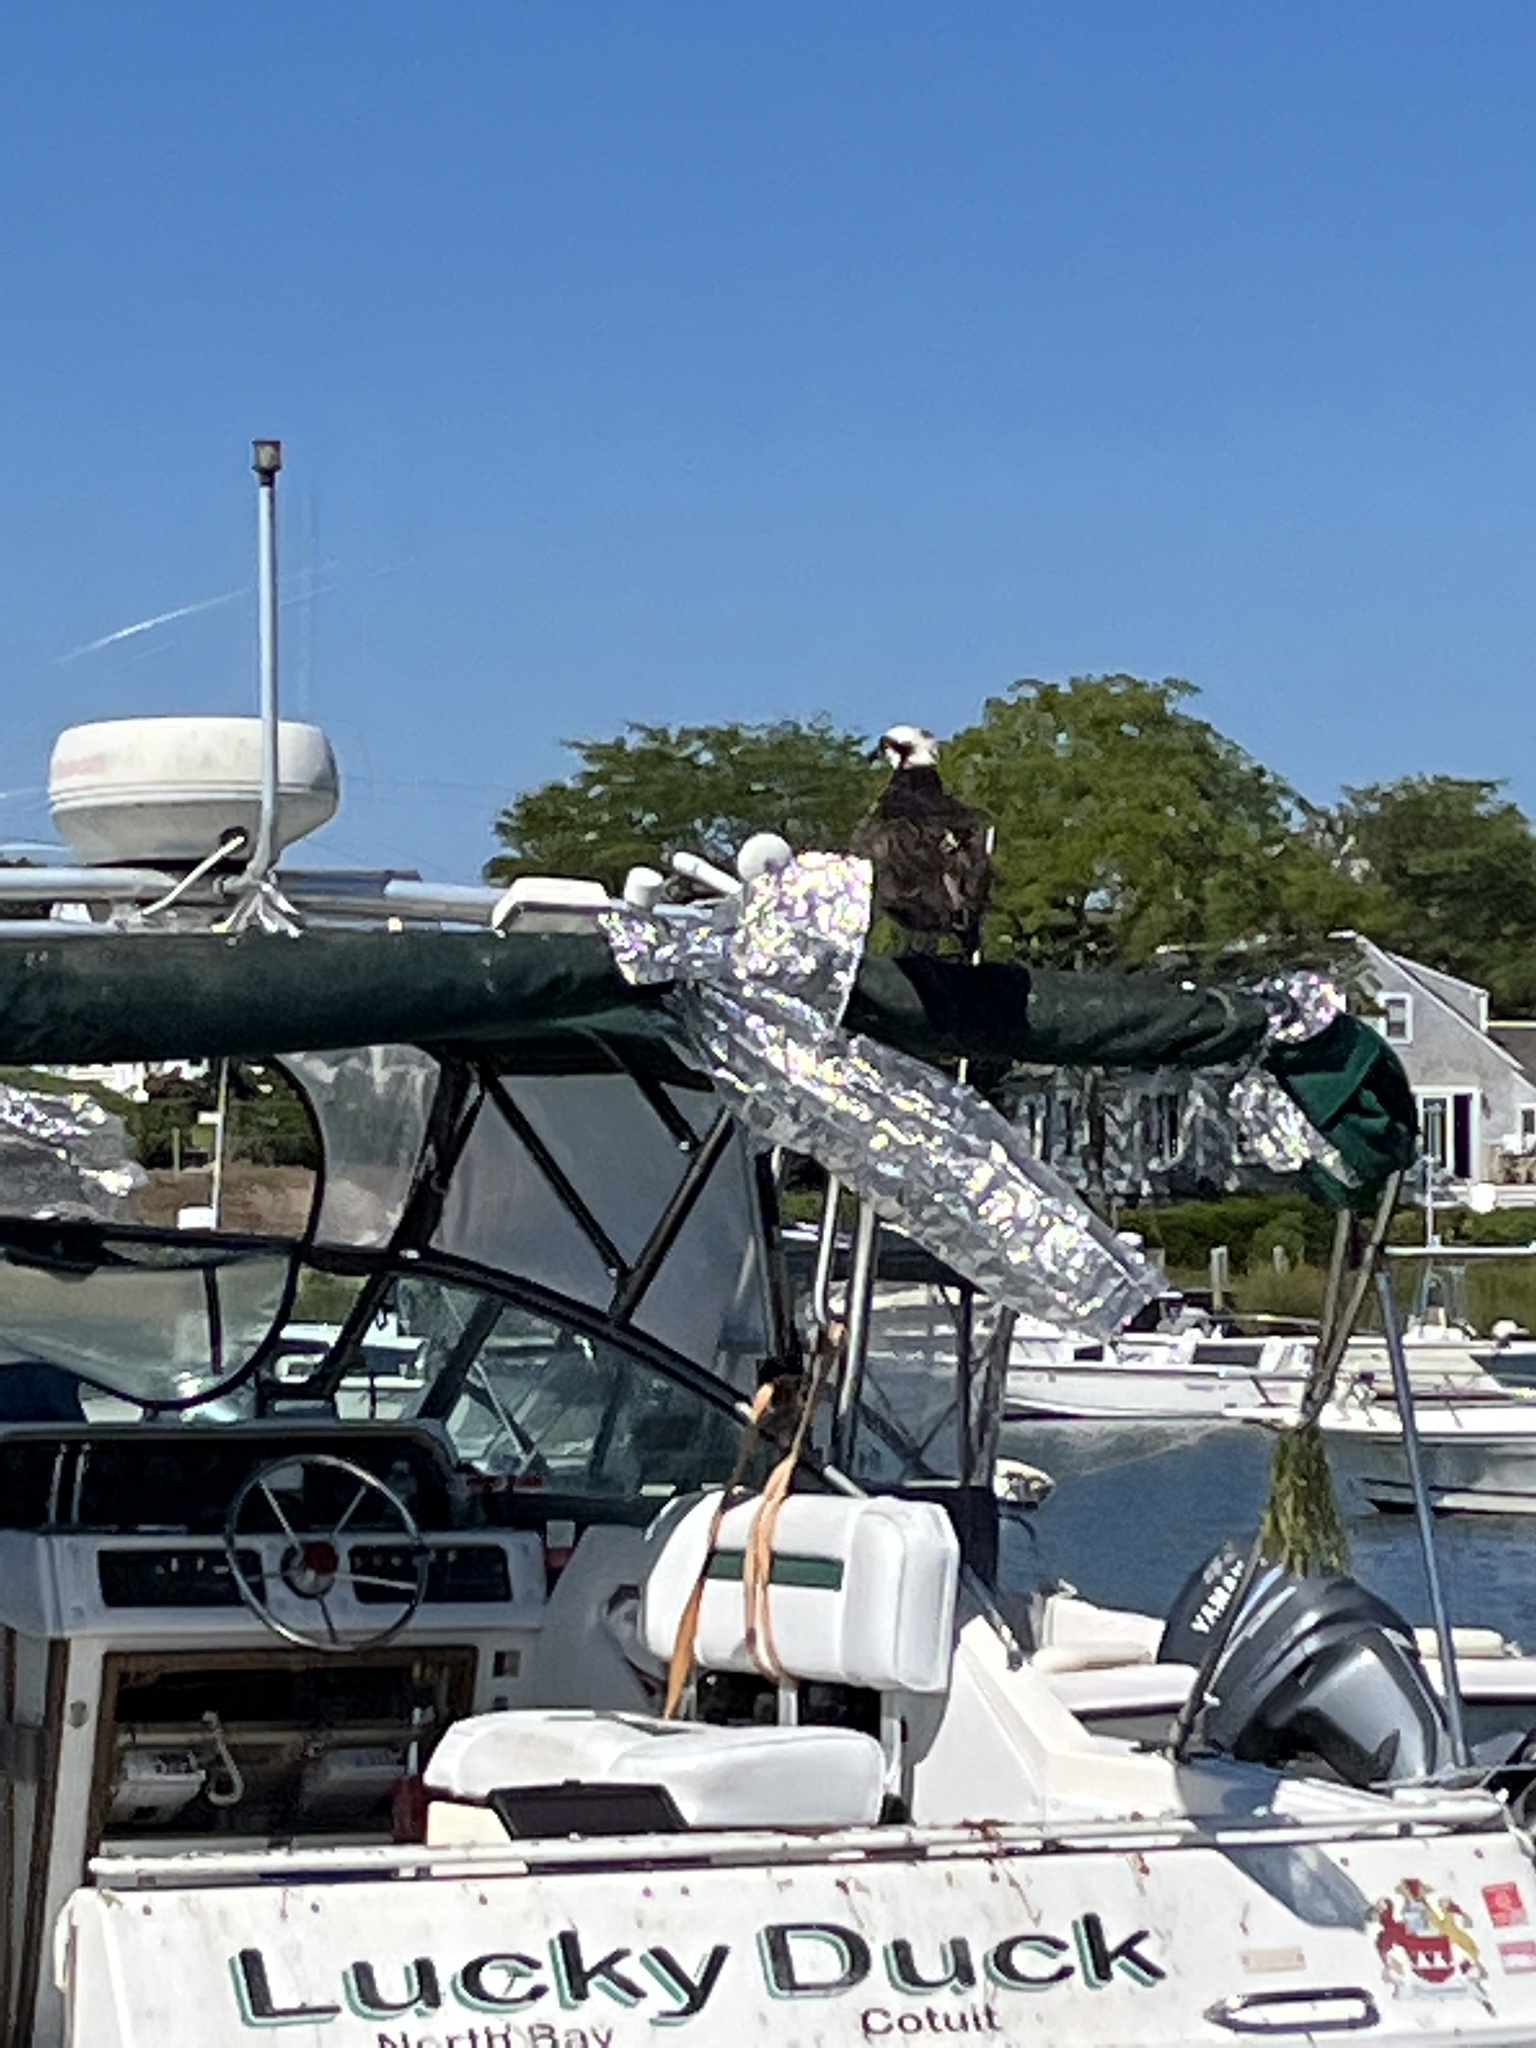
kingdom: Animalia
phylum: Chordata
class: Aves
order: Accipitriformes
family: Pandionidae
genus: Pandion
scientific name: Pandion haliaetus
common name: Osprey
